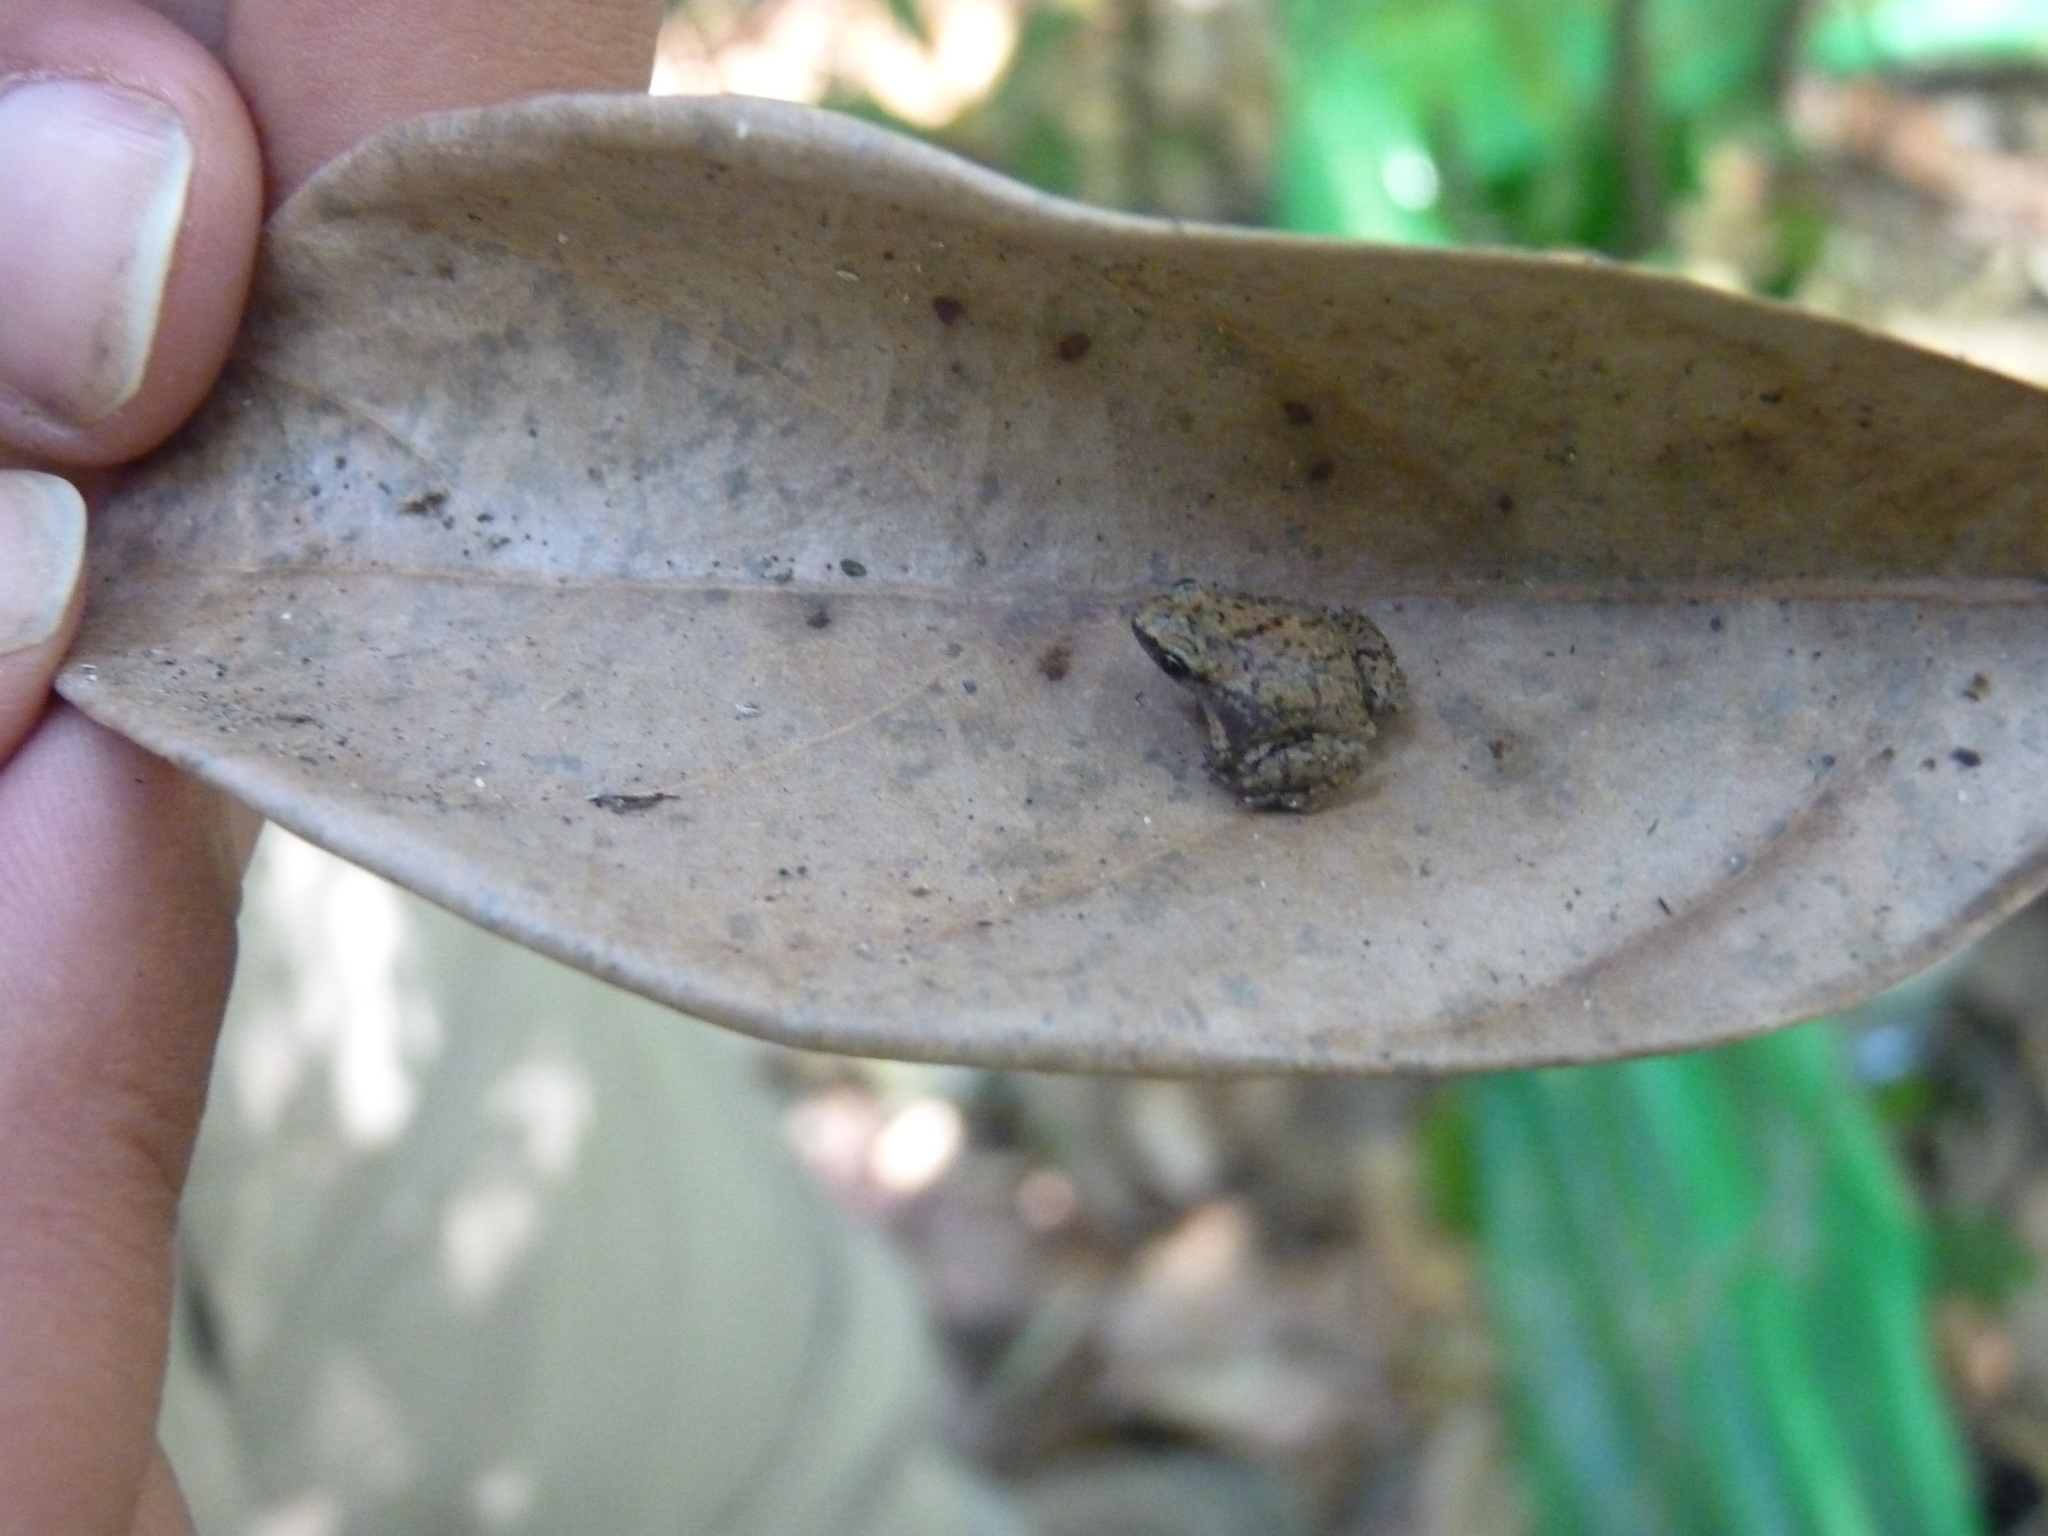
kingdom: Animalia
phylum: Chordata
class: Amphibia
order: Anura
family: Microhylidae
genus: Stumpffia
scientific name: Stumpffia pygmaea
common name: Andoany stump-toed frog
